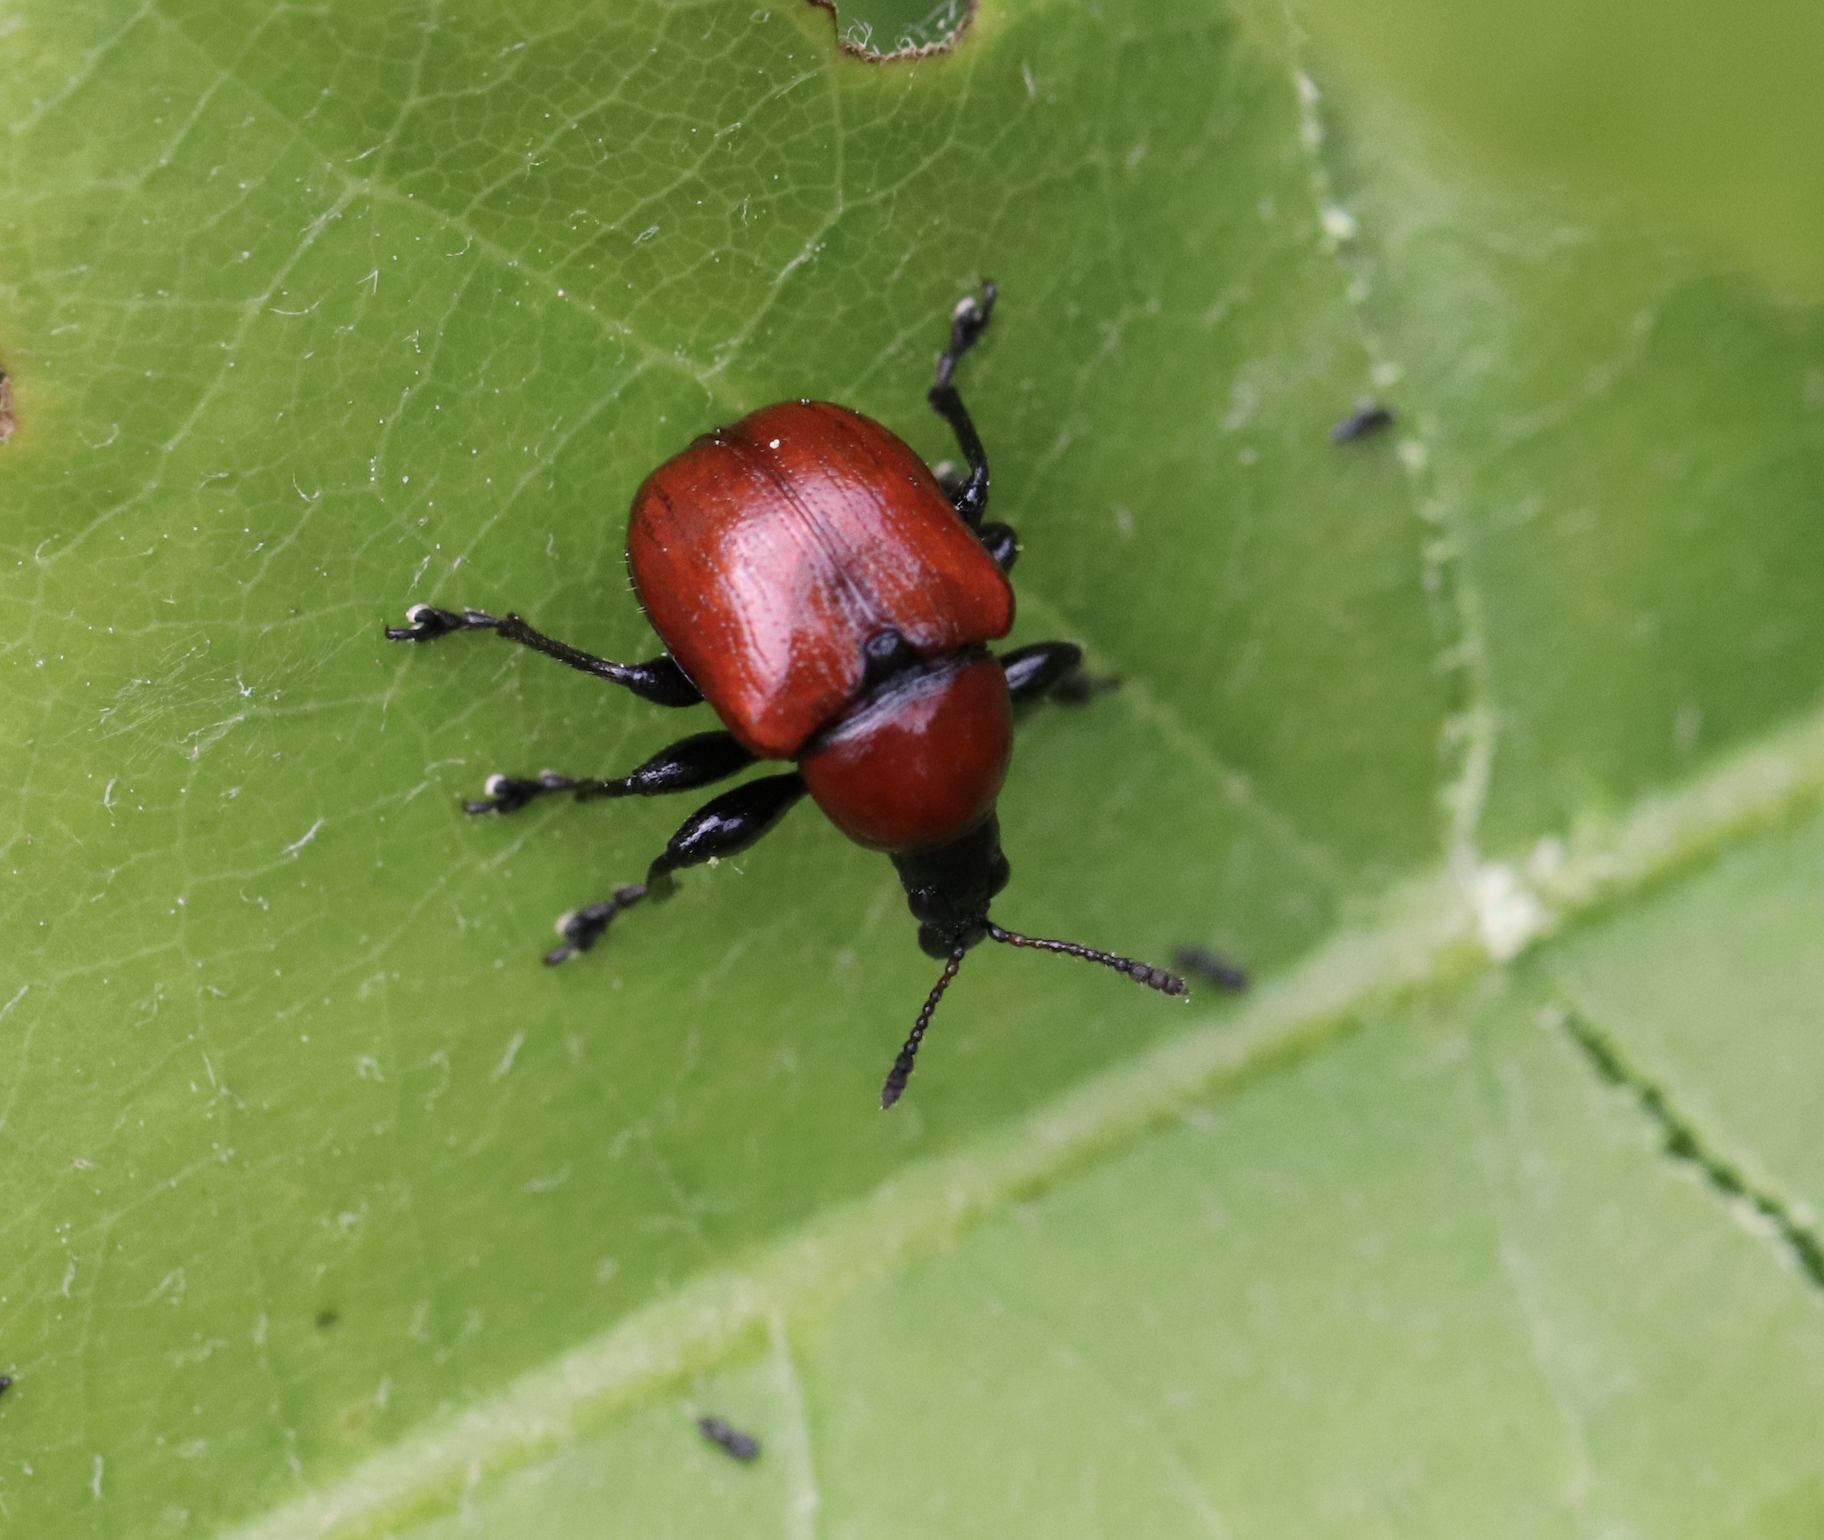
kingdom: Animalia
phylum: Arthropoda
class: Insecta
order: Coleoptera
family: Attelabidae
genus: Attelabus
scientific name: Attelabus nitens
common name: Oak leaf-roller
